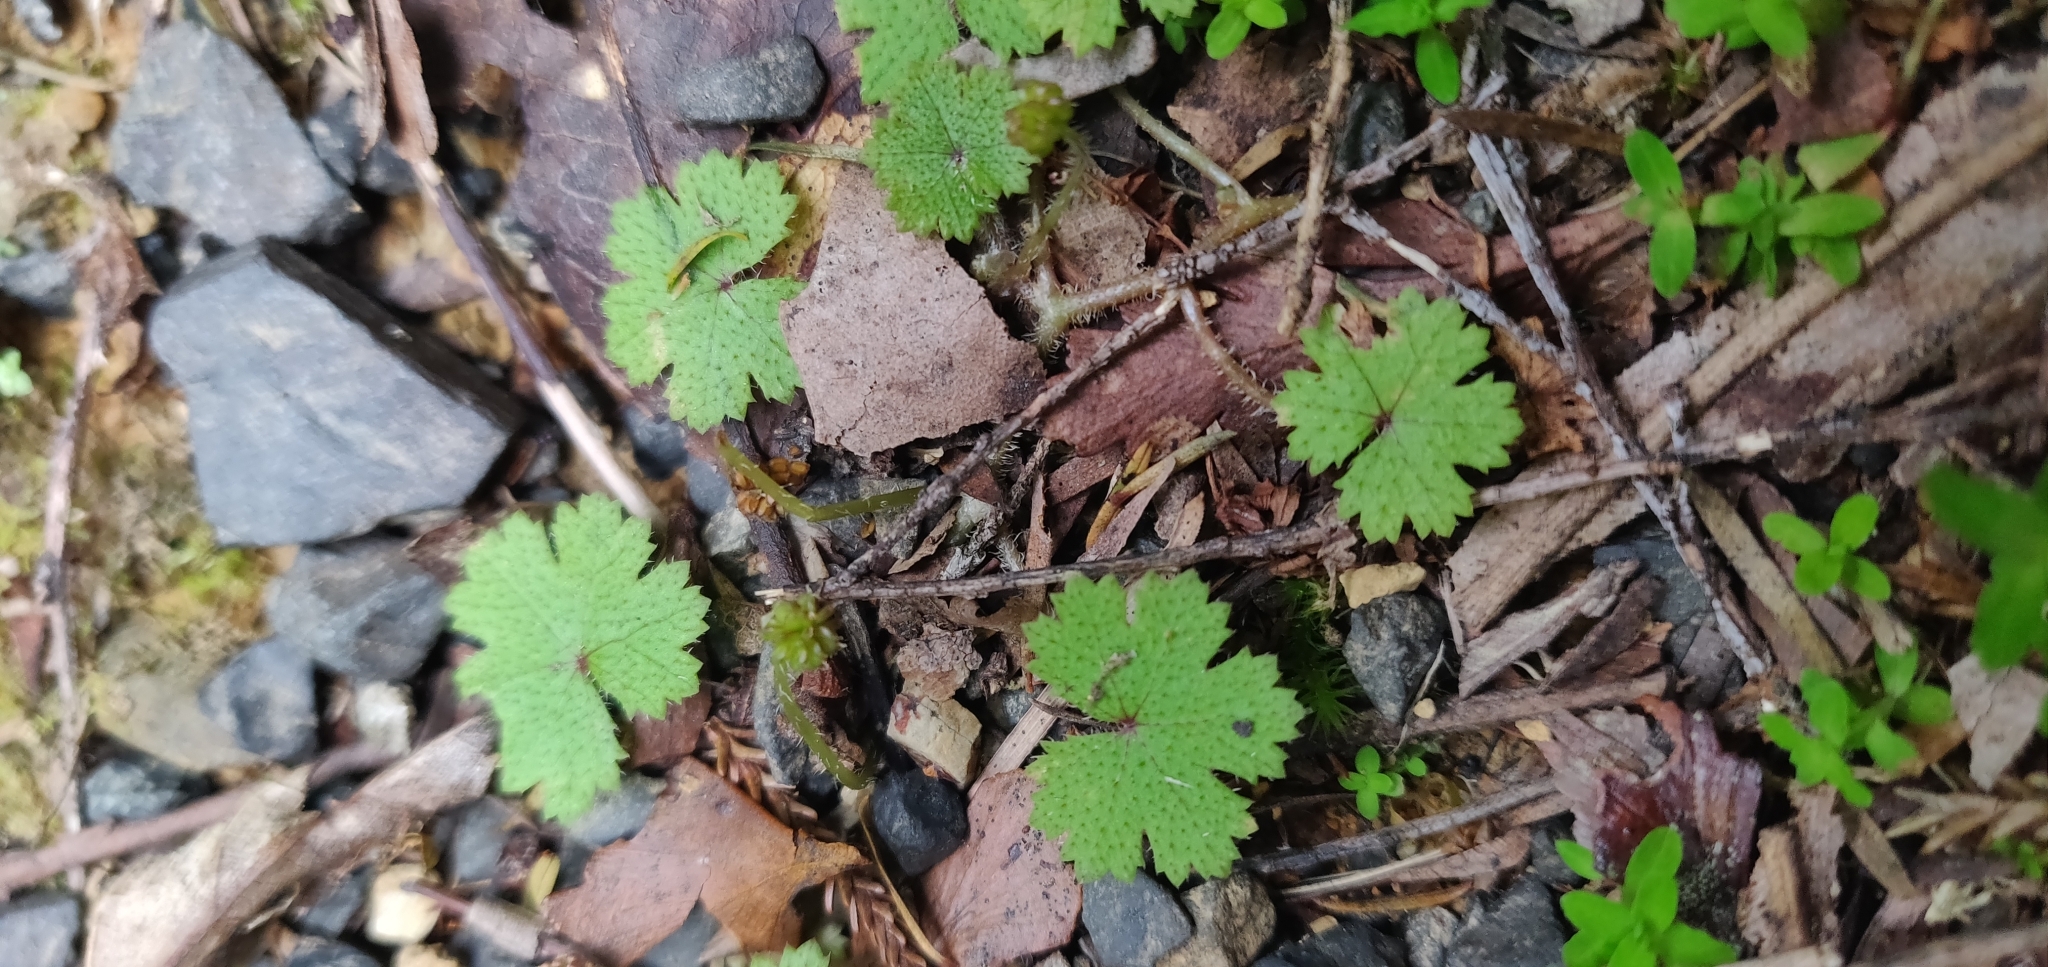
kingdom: Plantae
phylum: Tracheophyta
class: Magnoliopsida
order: Apiales
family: Araliaceae
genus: Hydrocotyle
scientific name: Hydrocotyle moschata
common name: Hairy pennywort
